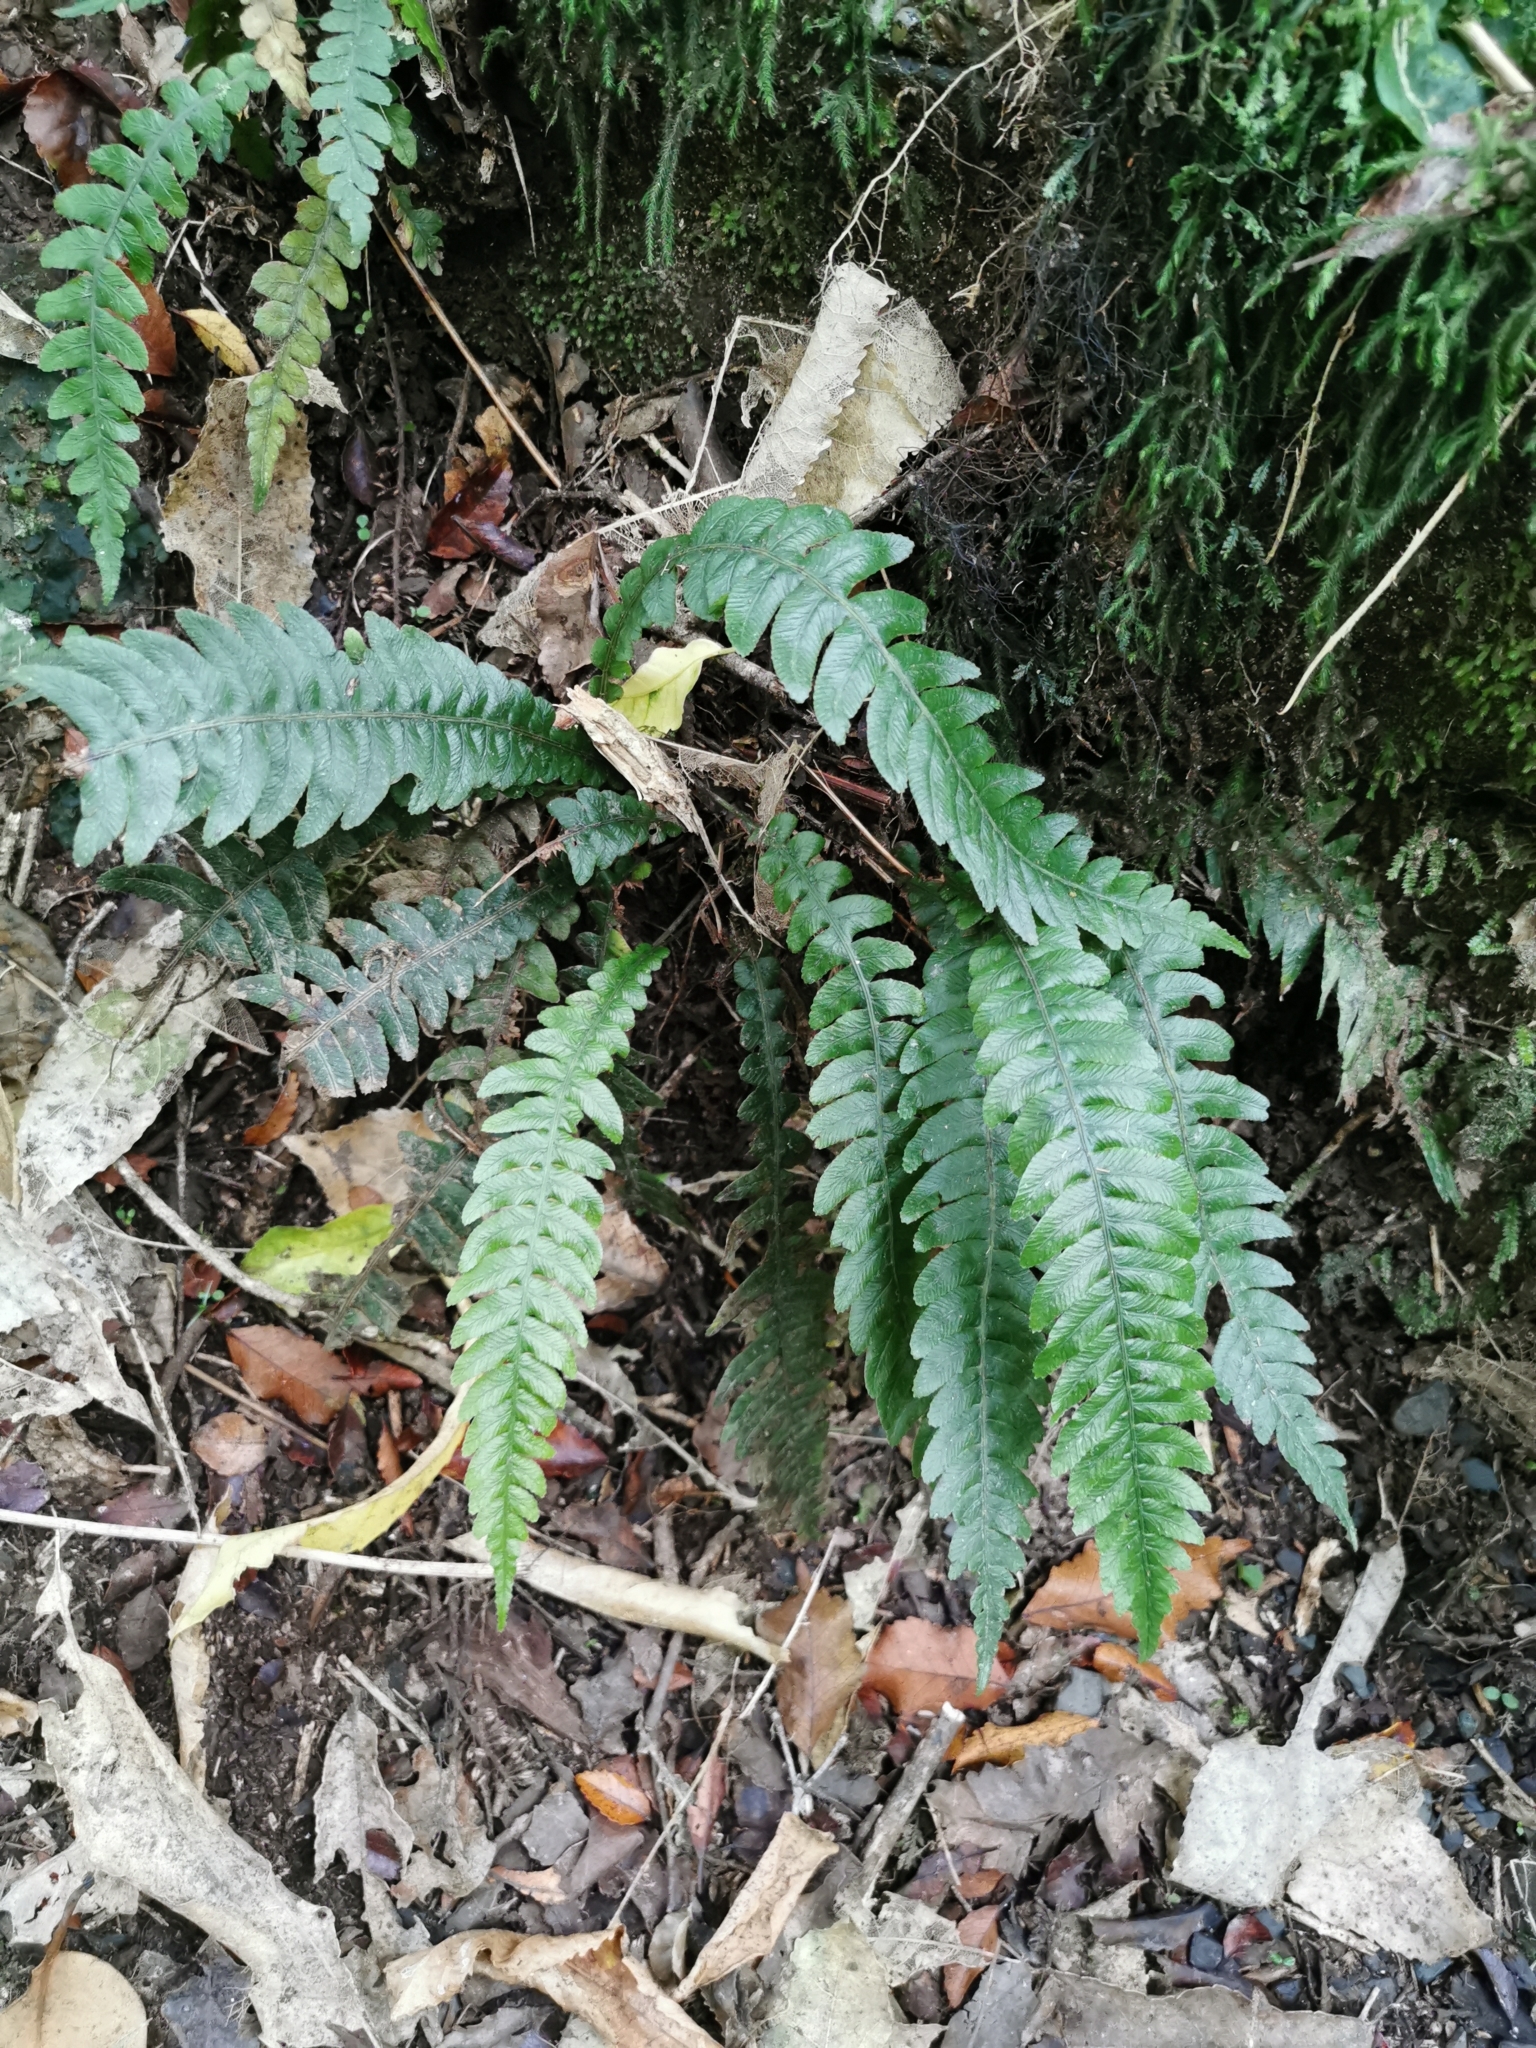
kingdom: Plantae
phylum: Tracheophyta
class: Polypodiopsida
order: Polypodiales
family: Blechnaceae
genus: Austroblechnum
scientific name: Austroblechnum lanceolatum
